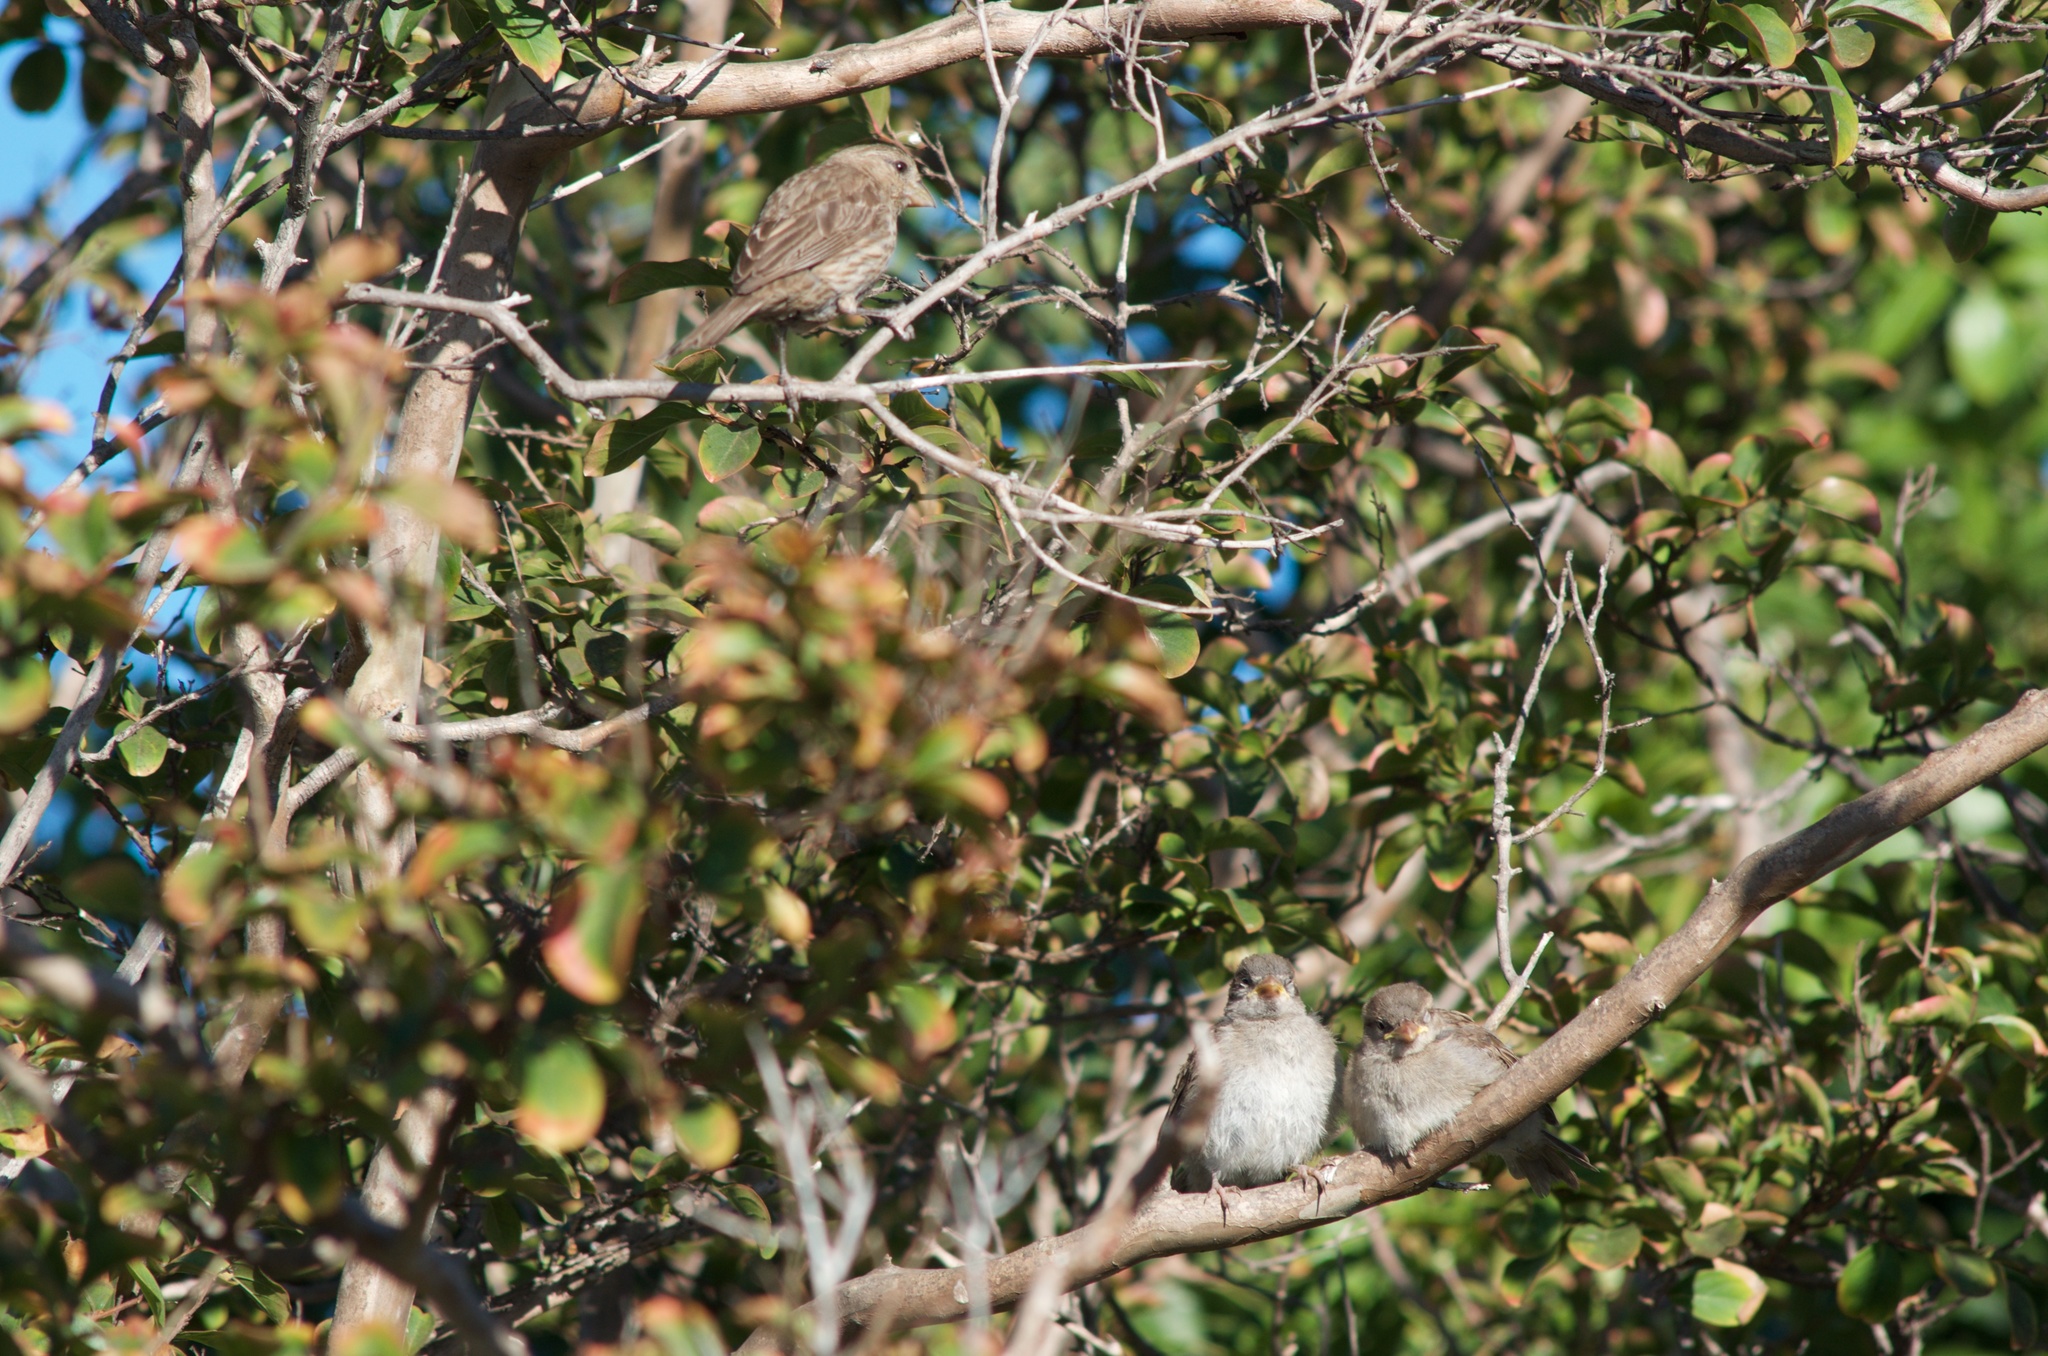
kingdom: Animalia
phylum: Chordata
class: Aves
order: Passeriformes
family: Fringillidae
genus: Haemorhous
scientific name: Haemorhous mexicanus
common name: House finch
